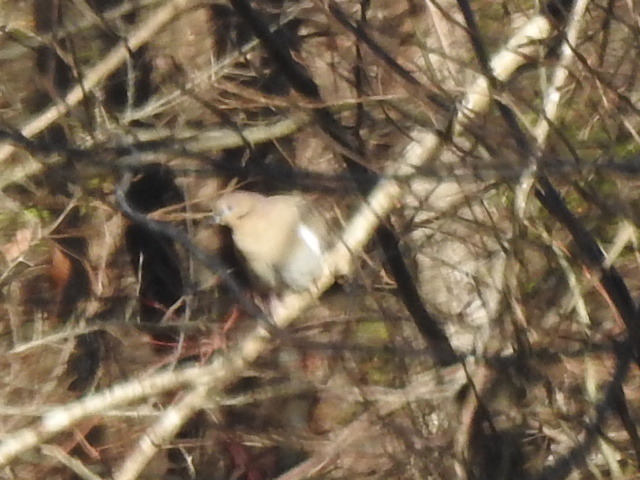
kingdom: Animalia
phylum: Chordata
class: Aves
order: Columbiformes
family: Columbidae
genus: Zenaida
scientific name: Zenaida asiatica
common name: White-winged dove
